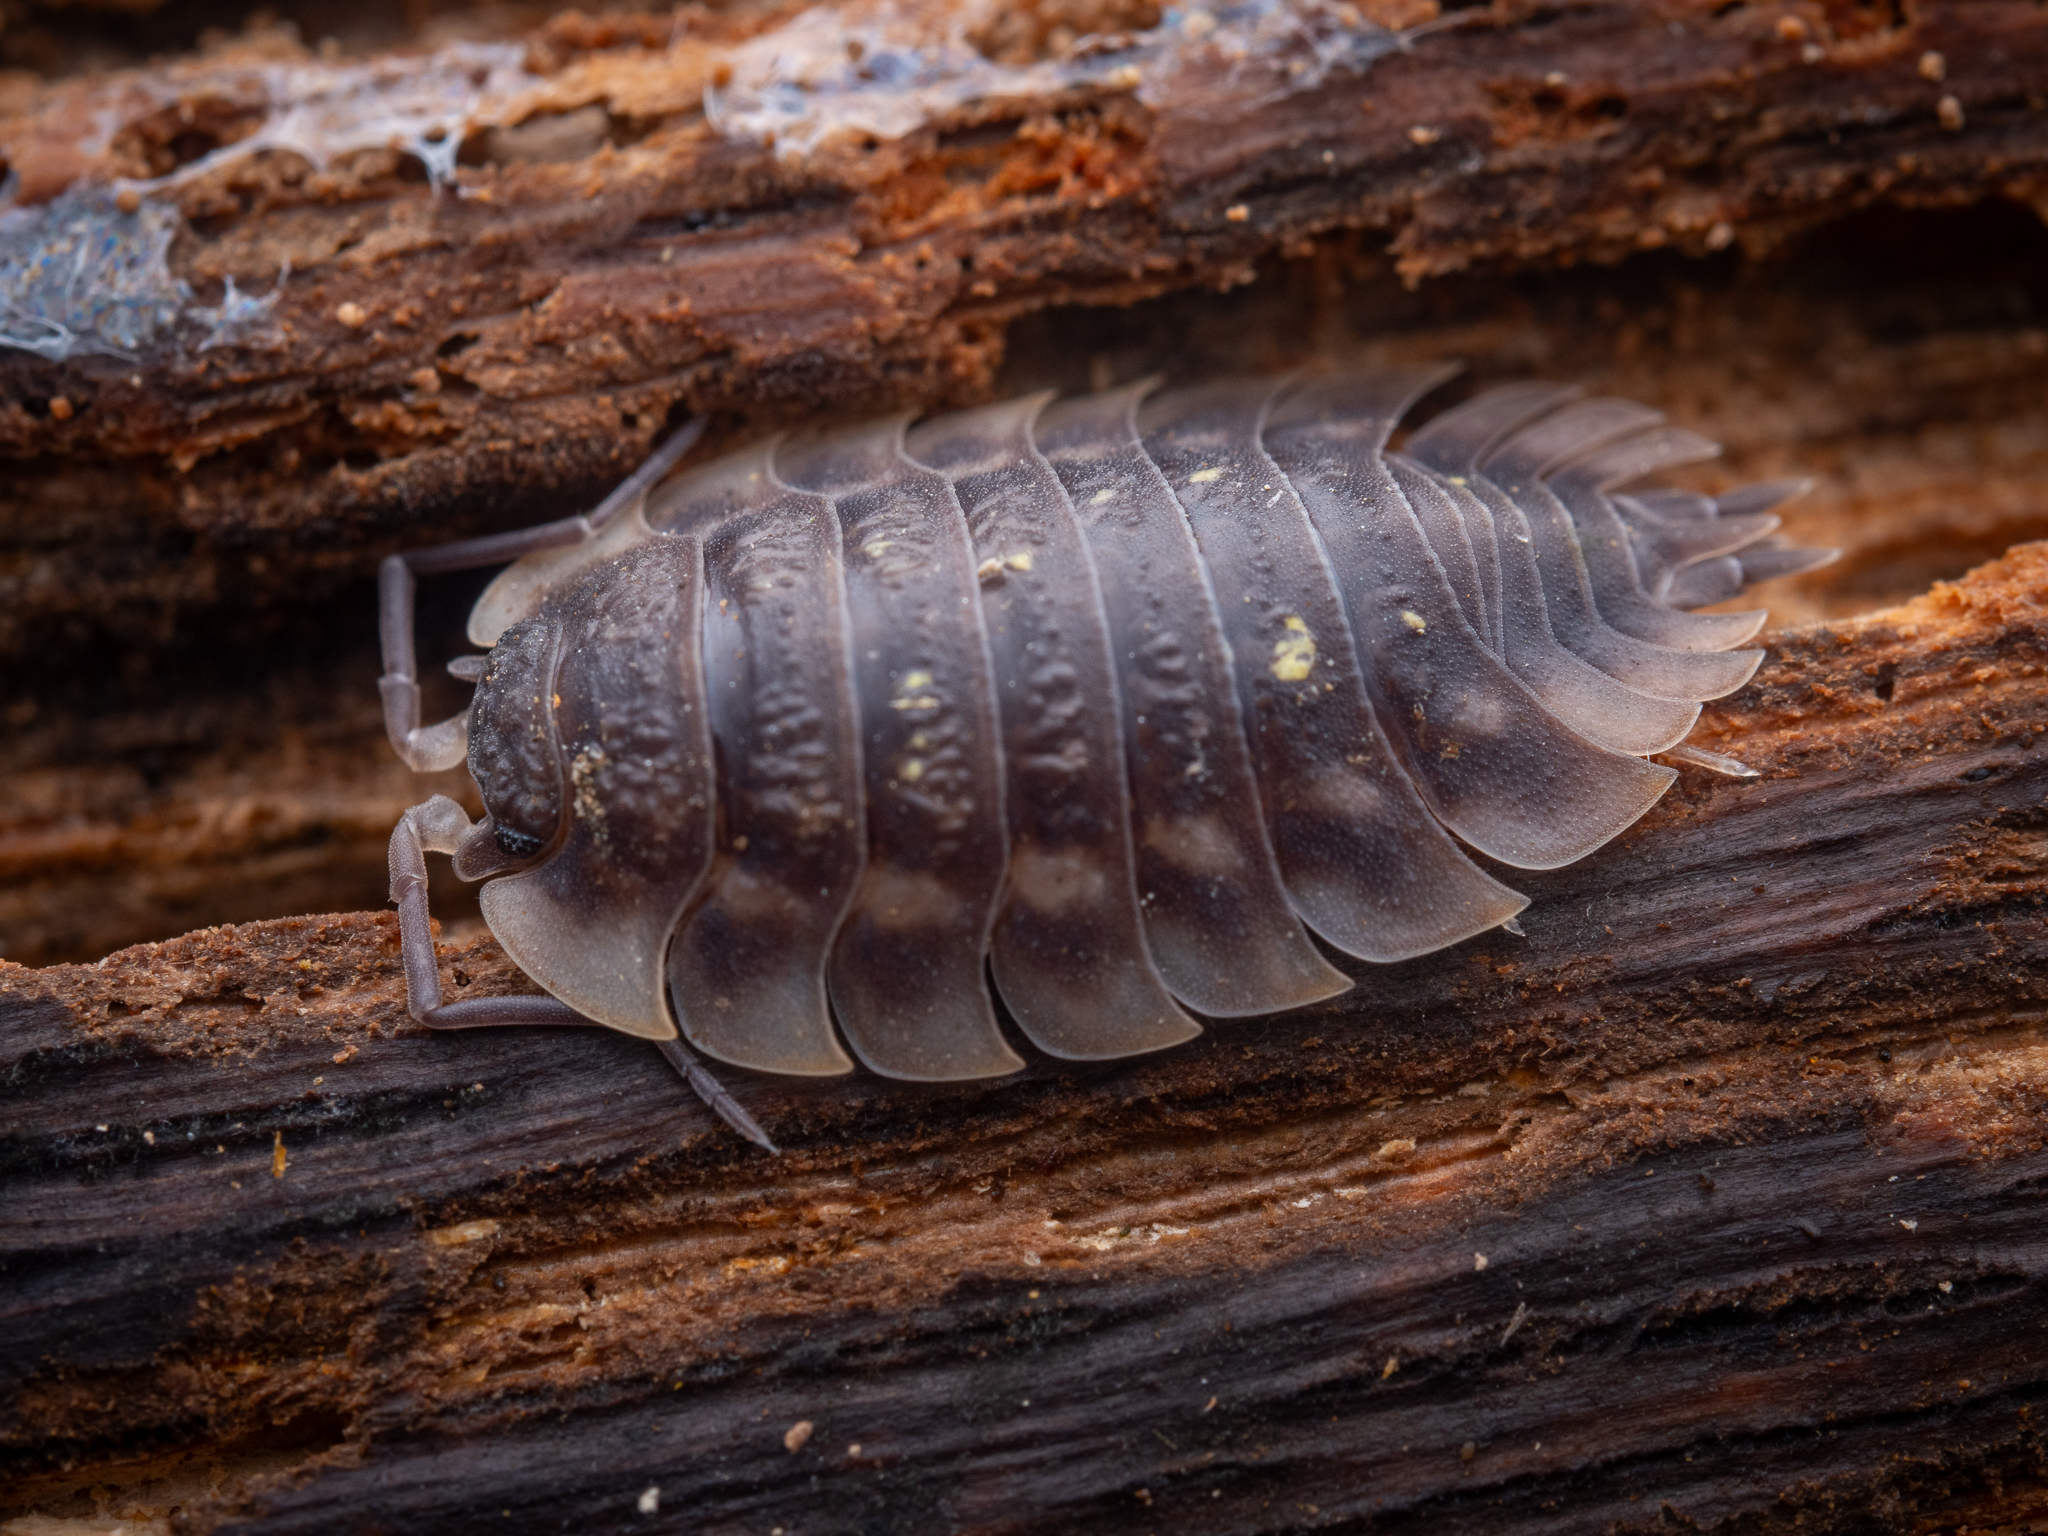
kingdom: Animalia
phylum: Arthropoda
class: Malacostraca
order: Isopoda
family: Oniscidae
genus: Oniscus
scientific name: Oniscus asellus
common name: Common shiny woodlouse
